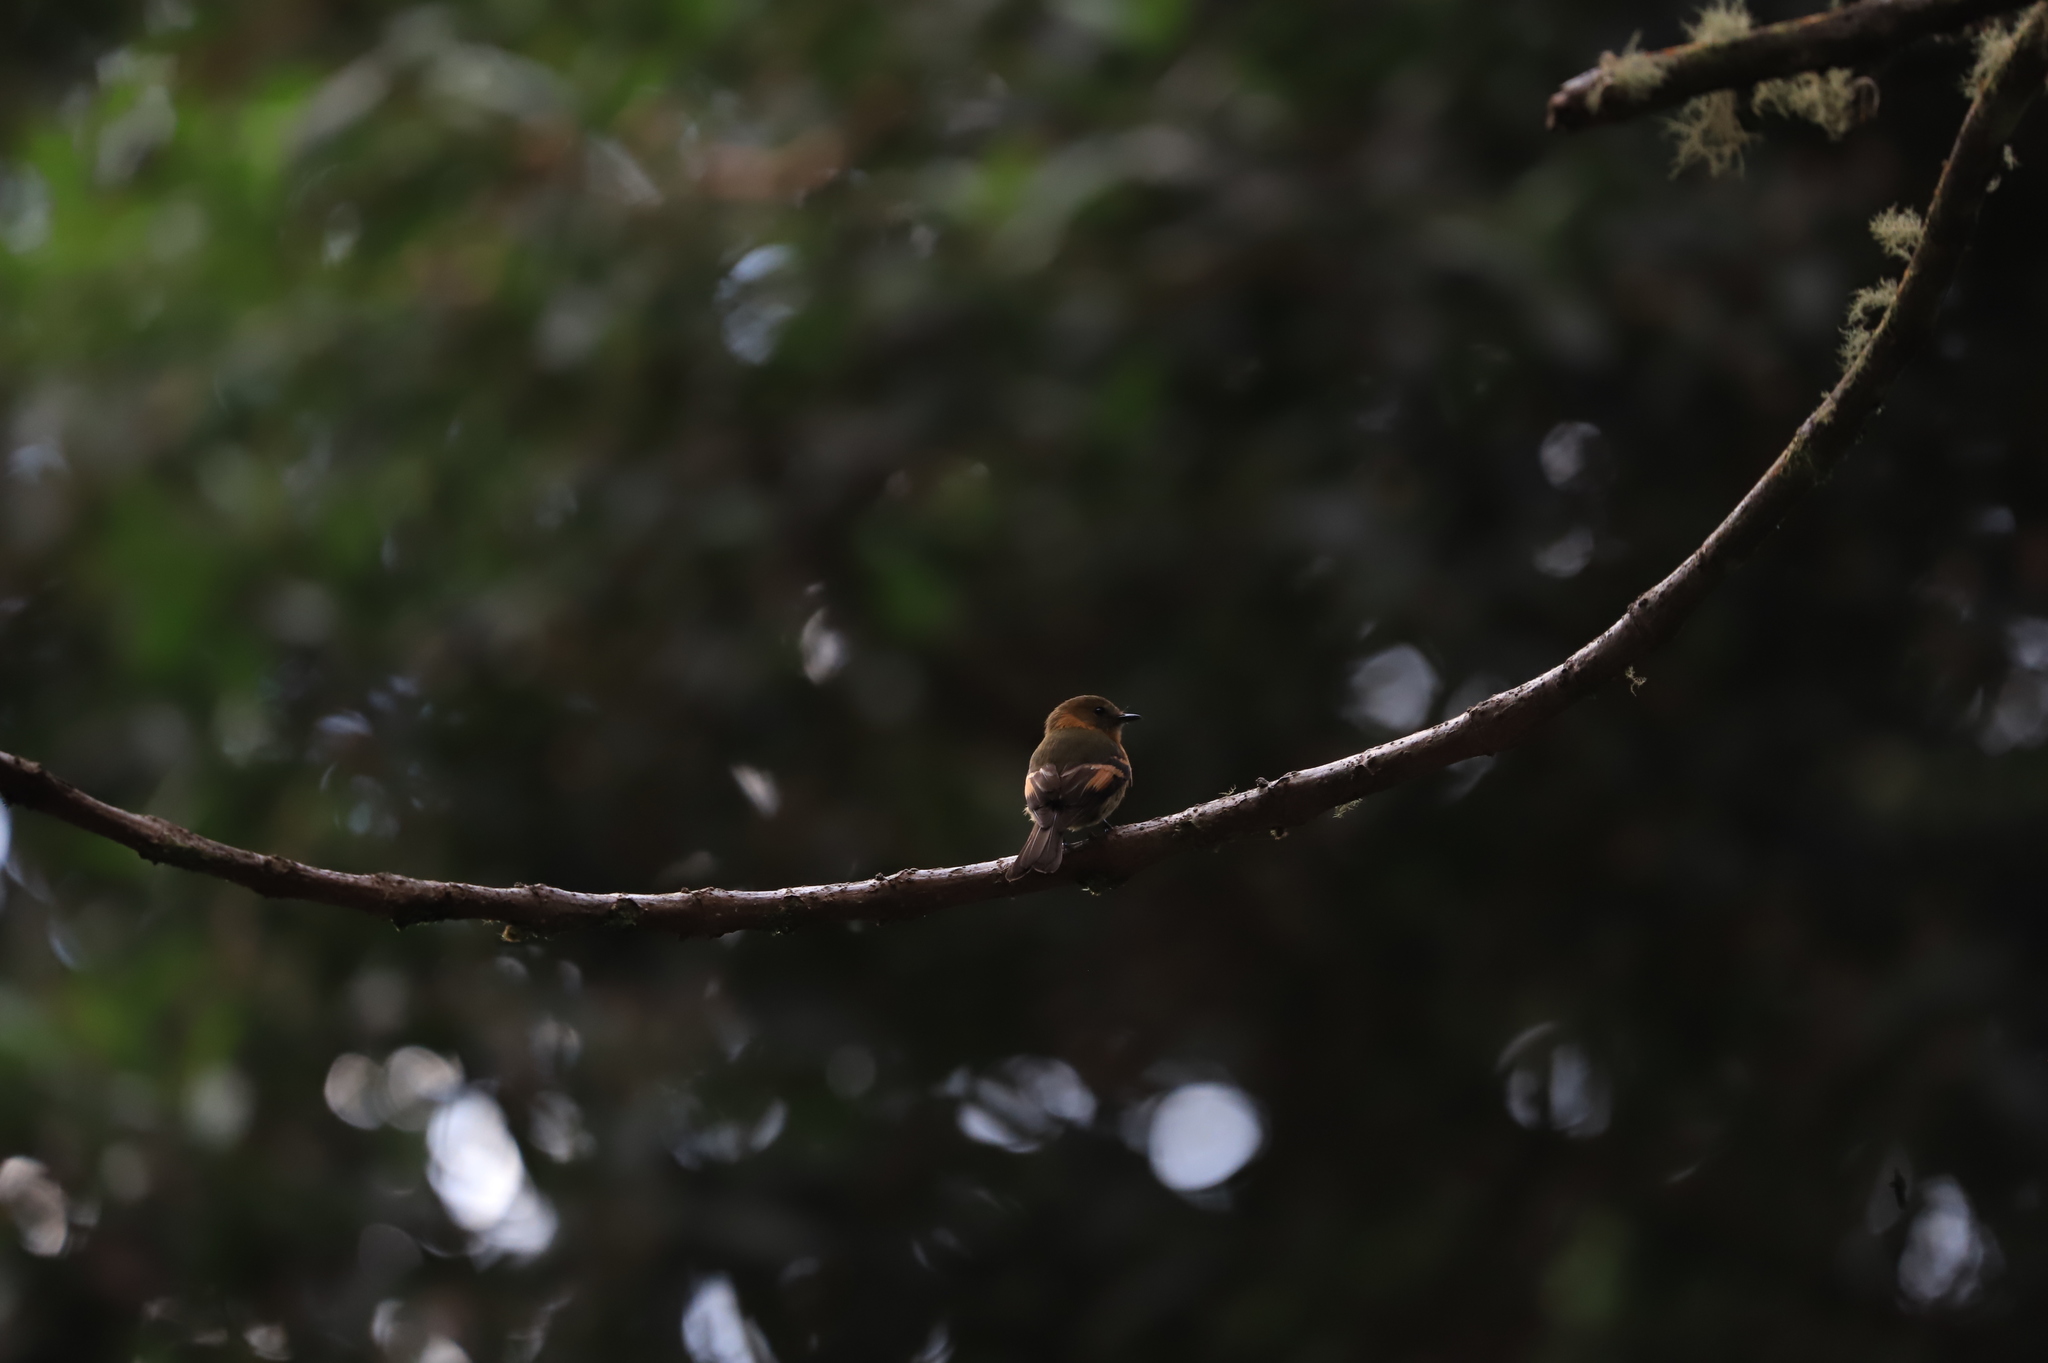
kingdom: Animalia
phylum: Chordata
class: Aves
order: Passeriformes
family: Tyrannidae
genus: Pyrrhomyias
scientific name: Pyrrhomyias cinnamomeus
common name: Cinnamon flycatcher
